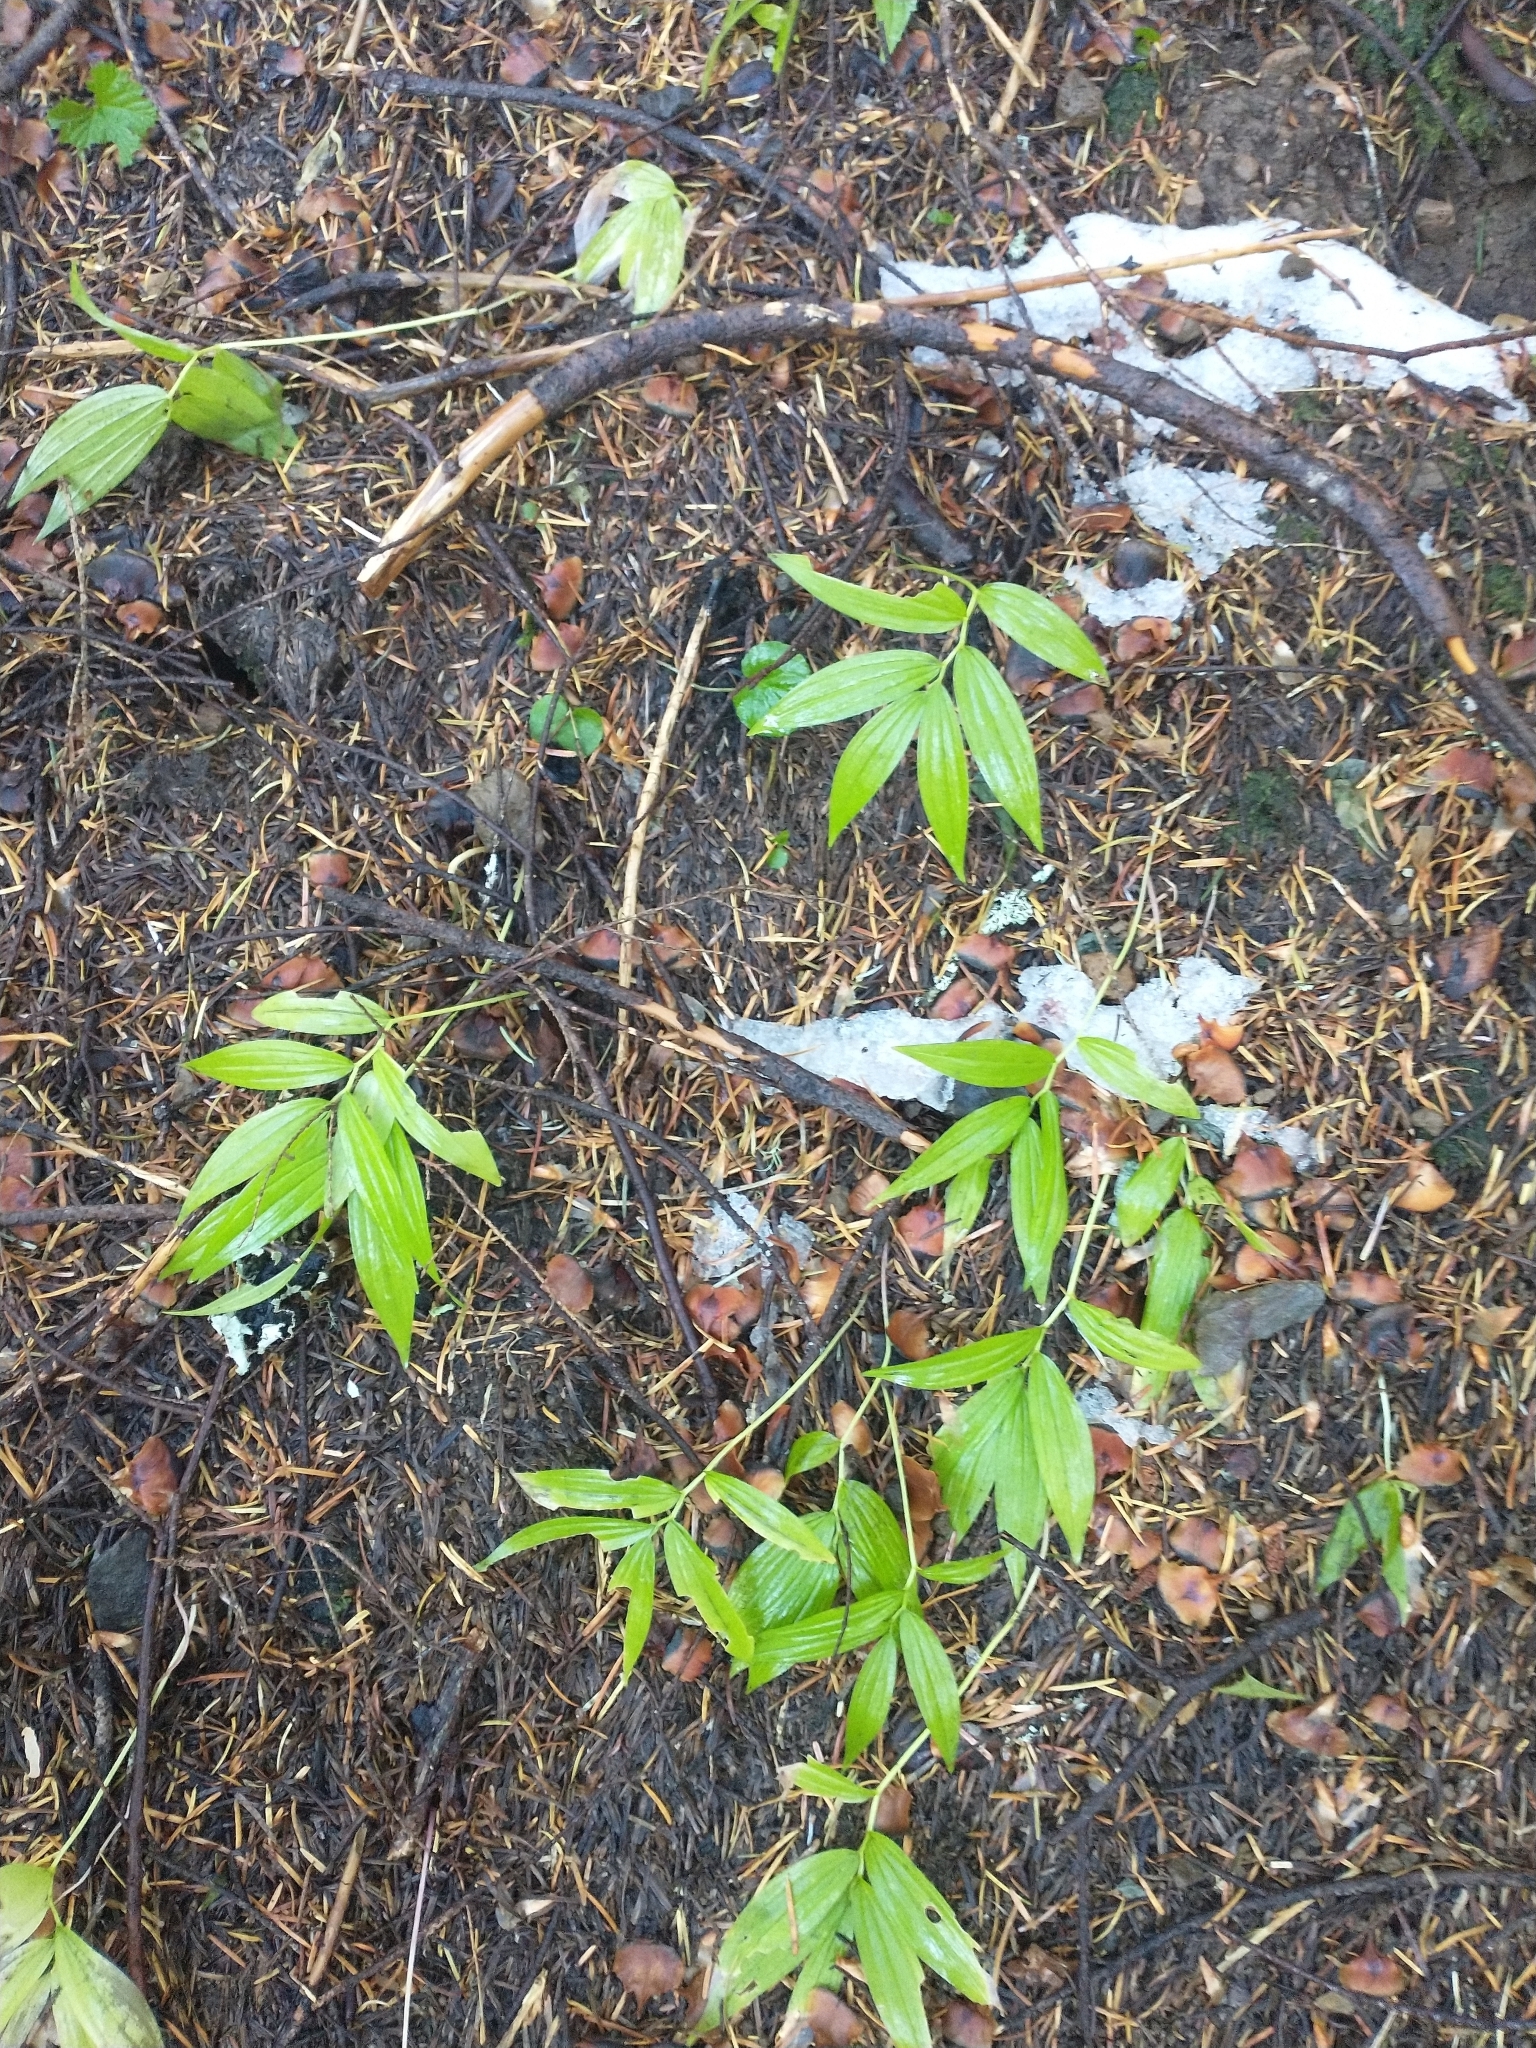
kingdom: Plantae
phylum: Tracheophyta
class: Liliopsida
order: Asparagales
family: Asparagaceae
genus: Maianthemum
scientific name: Maianthemum stellatum
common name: Little false solomon's seal
